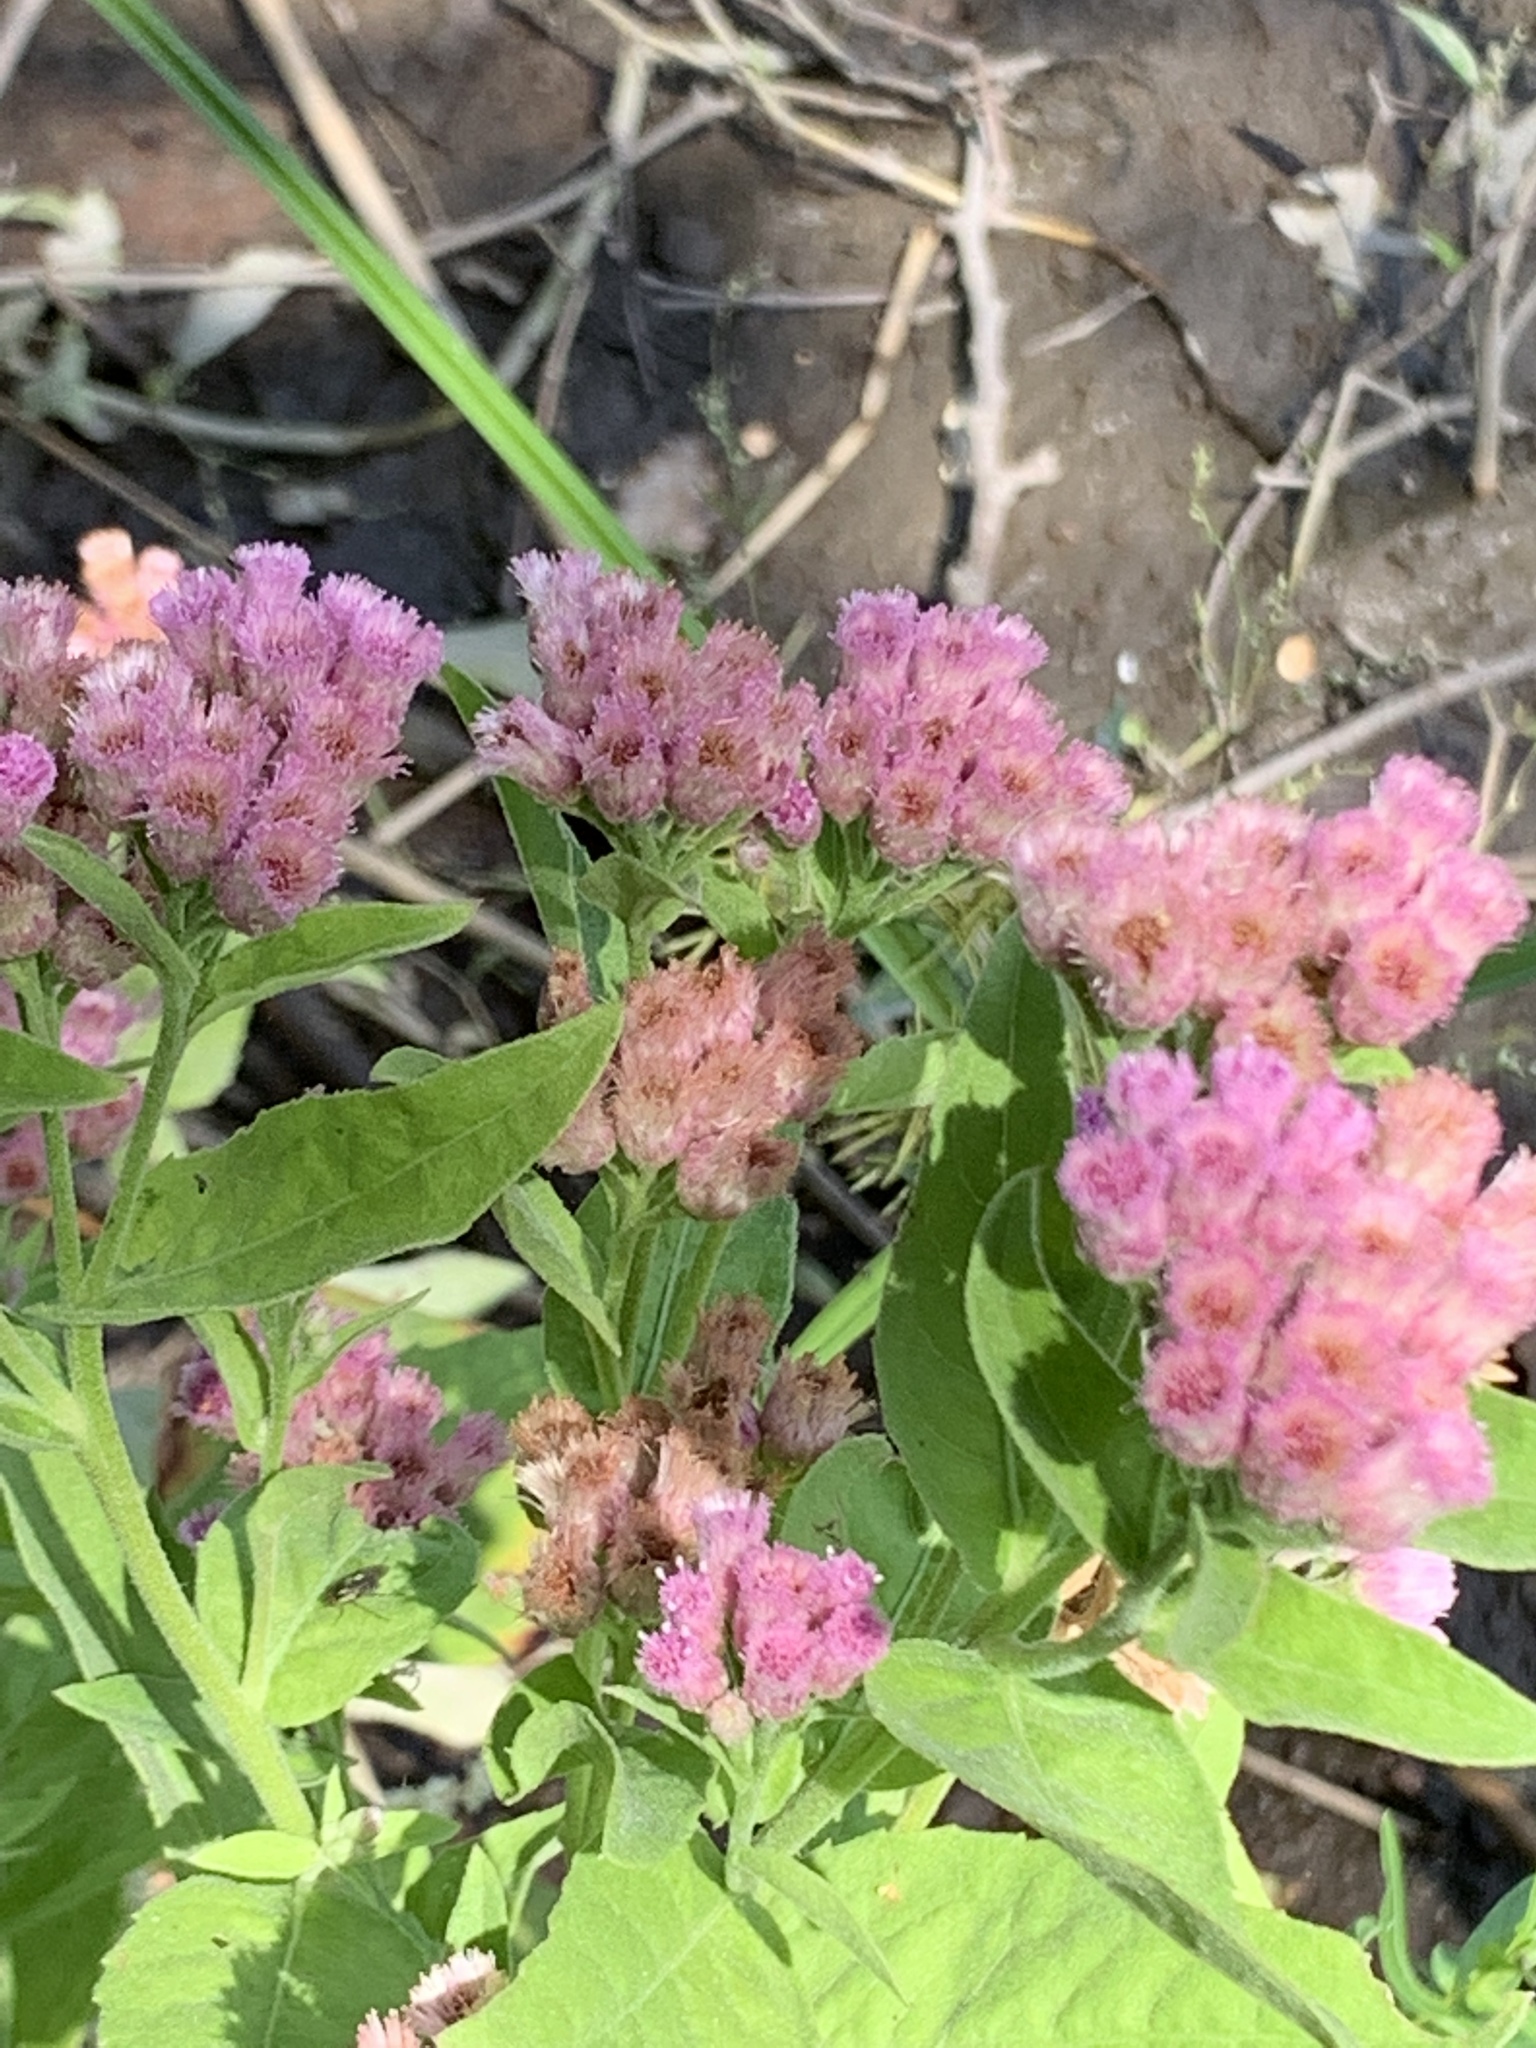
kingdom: Plantae
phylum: Tracheophyta
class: Magnoliopsida
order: Asterales
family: Asteraceae
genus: Pluchea
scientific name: Pluchea odorata
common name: Saltmarsh fleabane
